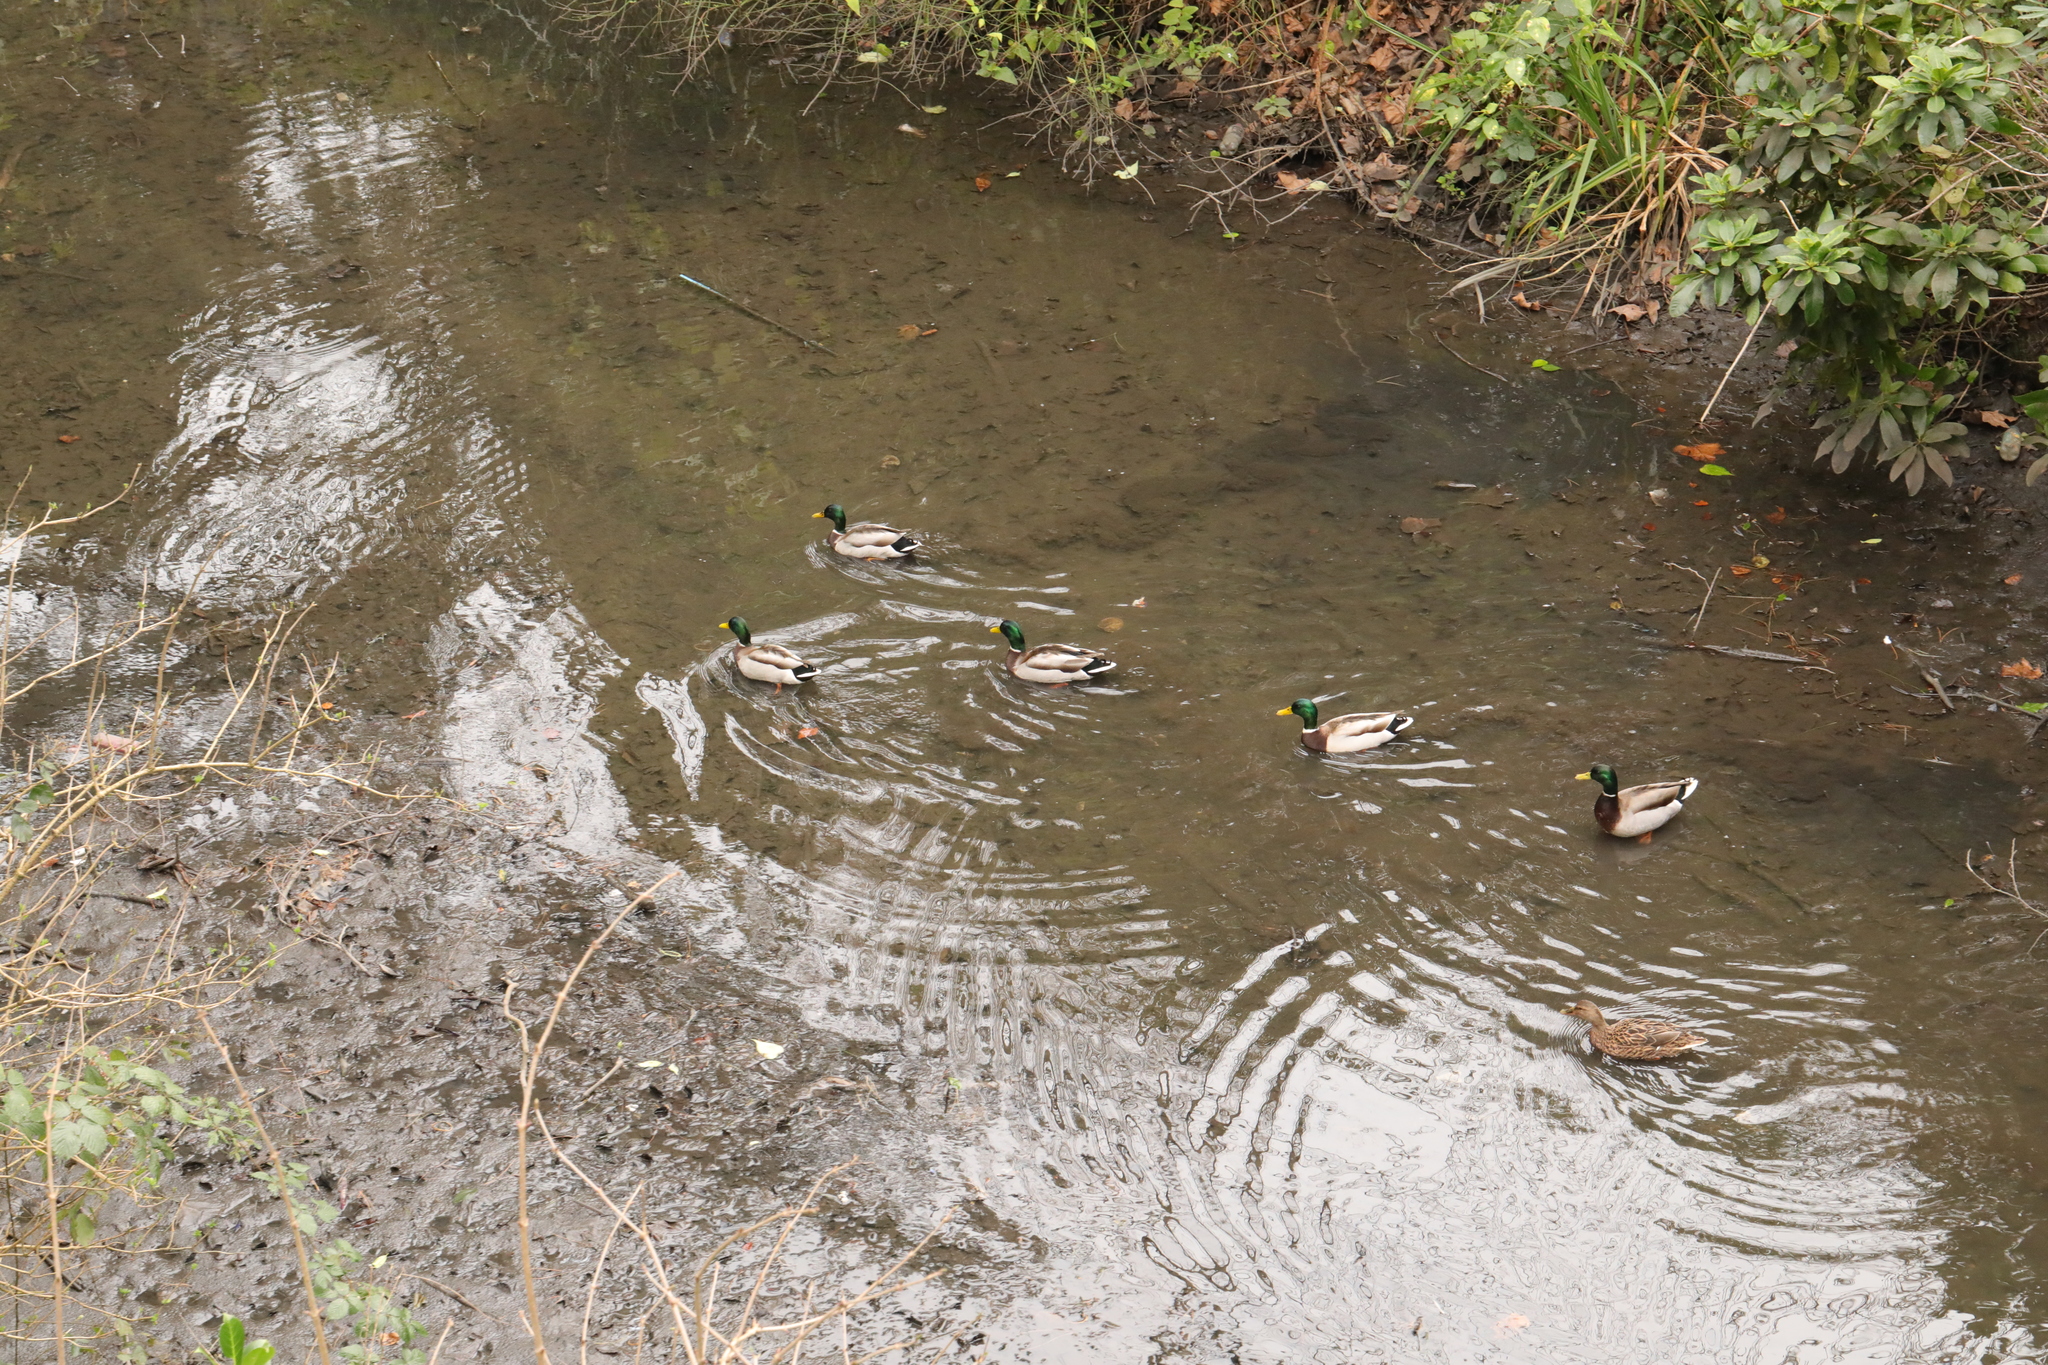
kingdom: Animalia
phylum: Chordata
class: Aves
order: Anseriformes
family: Anatidae
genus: Anas
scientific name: Anas platyrhynchos
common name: Mallard
